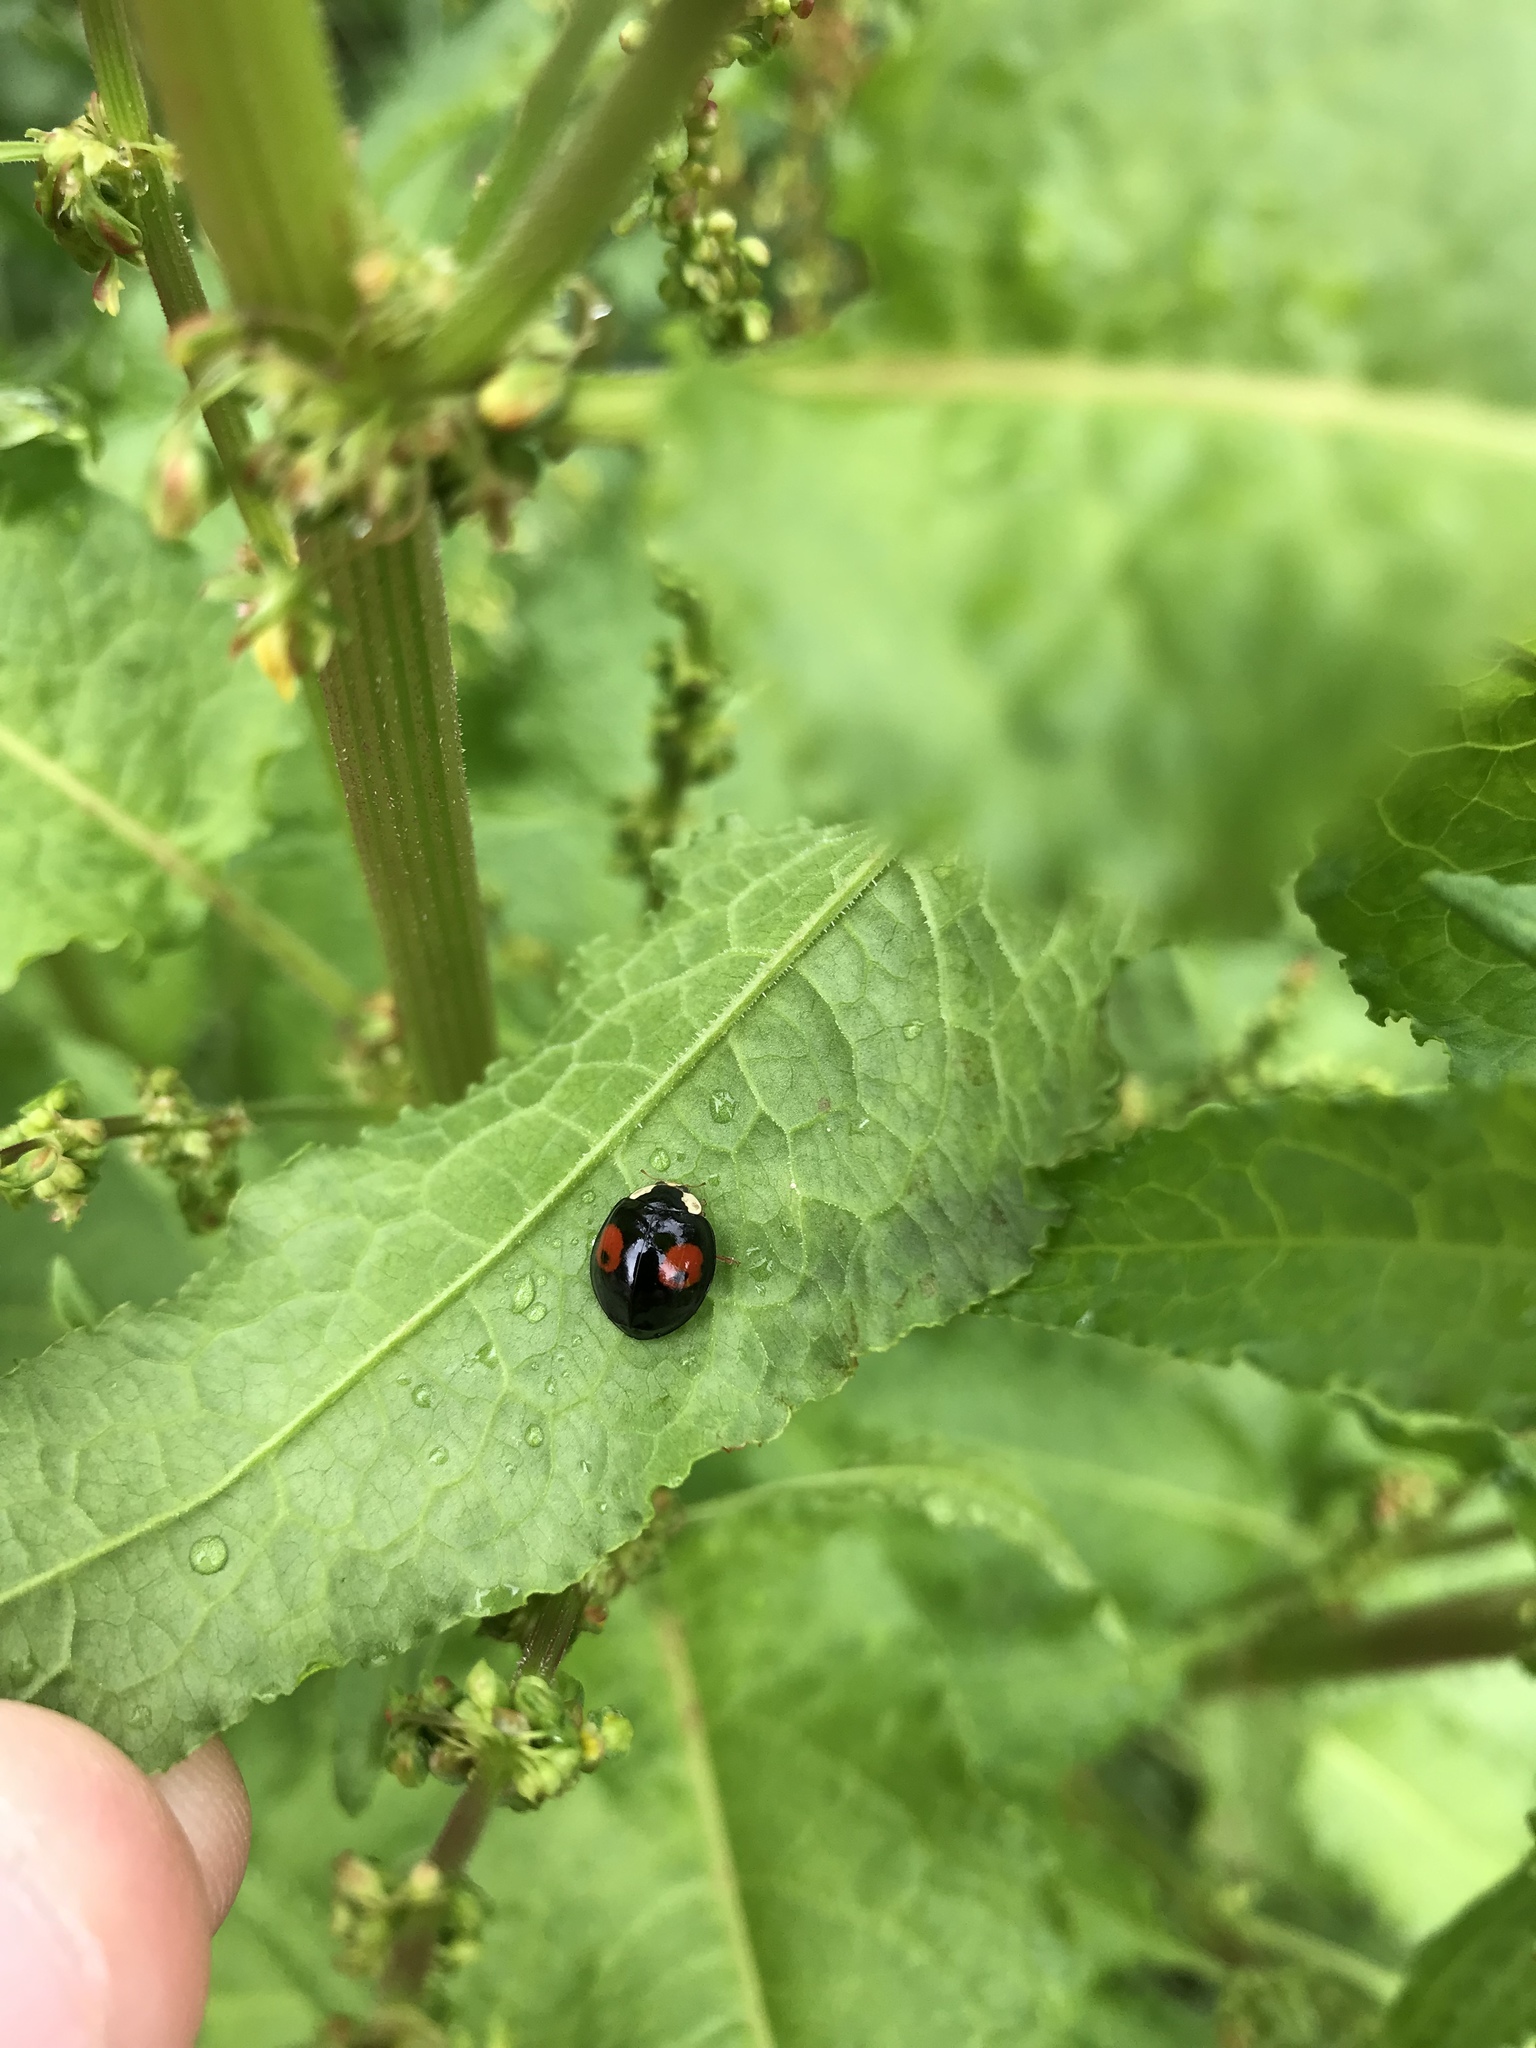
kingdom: Animalia
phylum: Arthropoda
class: Insecta
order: Coleoptera
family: Coccinellidae
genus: Harmonia
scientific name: Harmonia axyridis
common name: Harlequin ladybird
